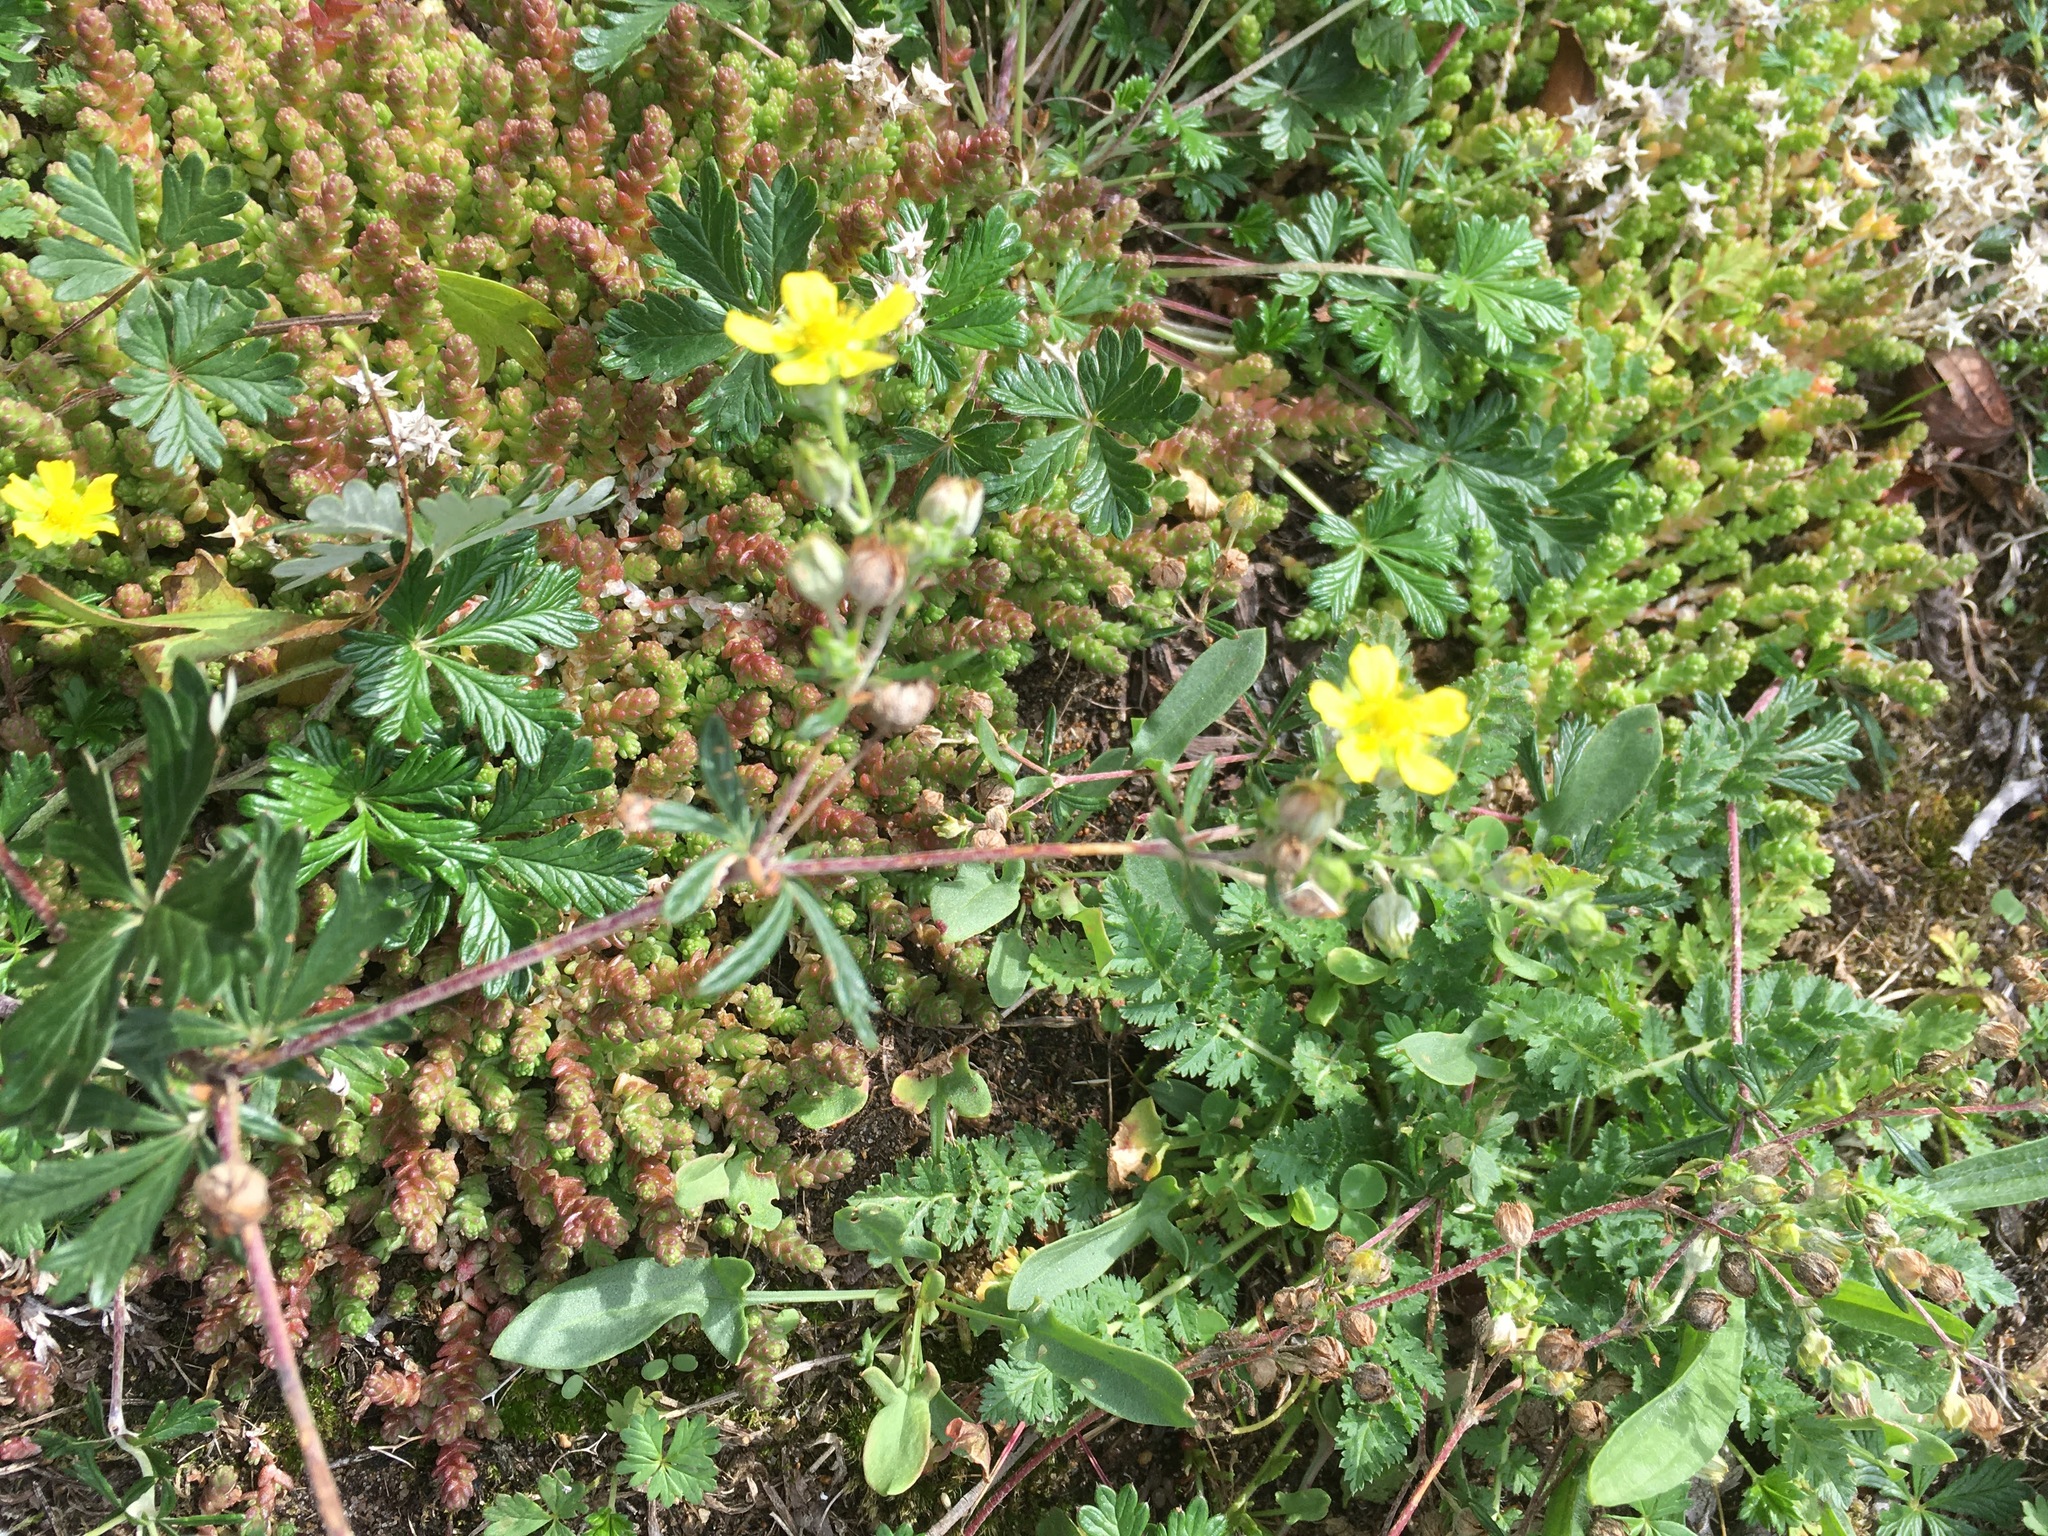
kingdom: Plantae
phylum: Tracheophyta
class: Magnoliopsida
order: Rosales
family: Rosaceae
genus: Potentilla
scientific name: Potentilla argentea
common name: Hoary cinquefoil
